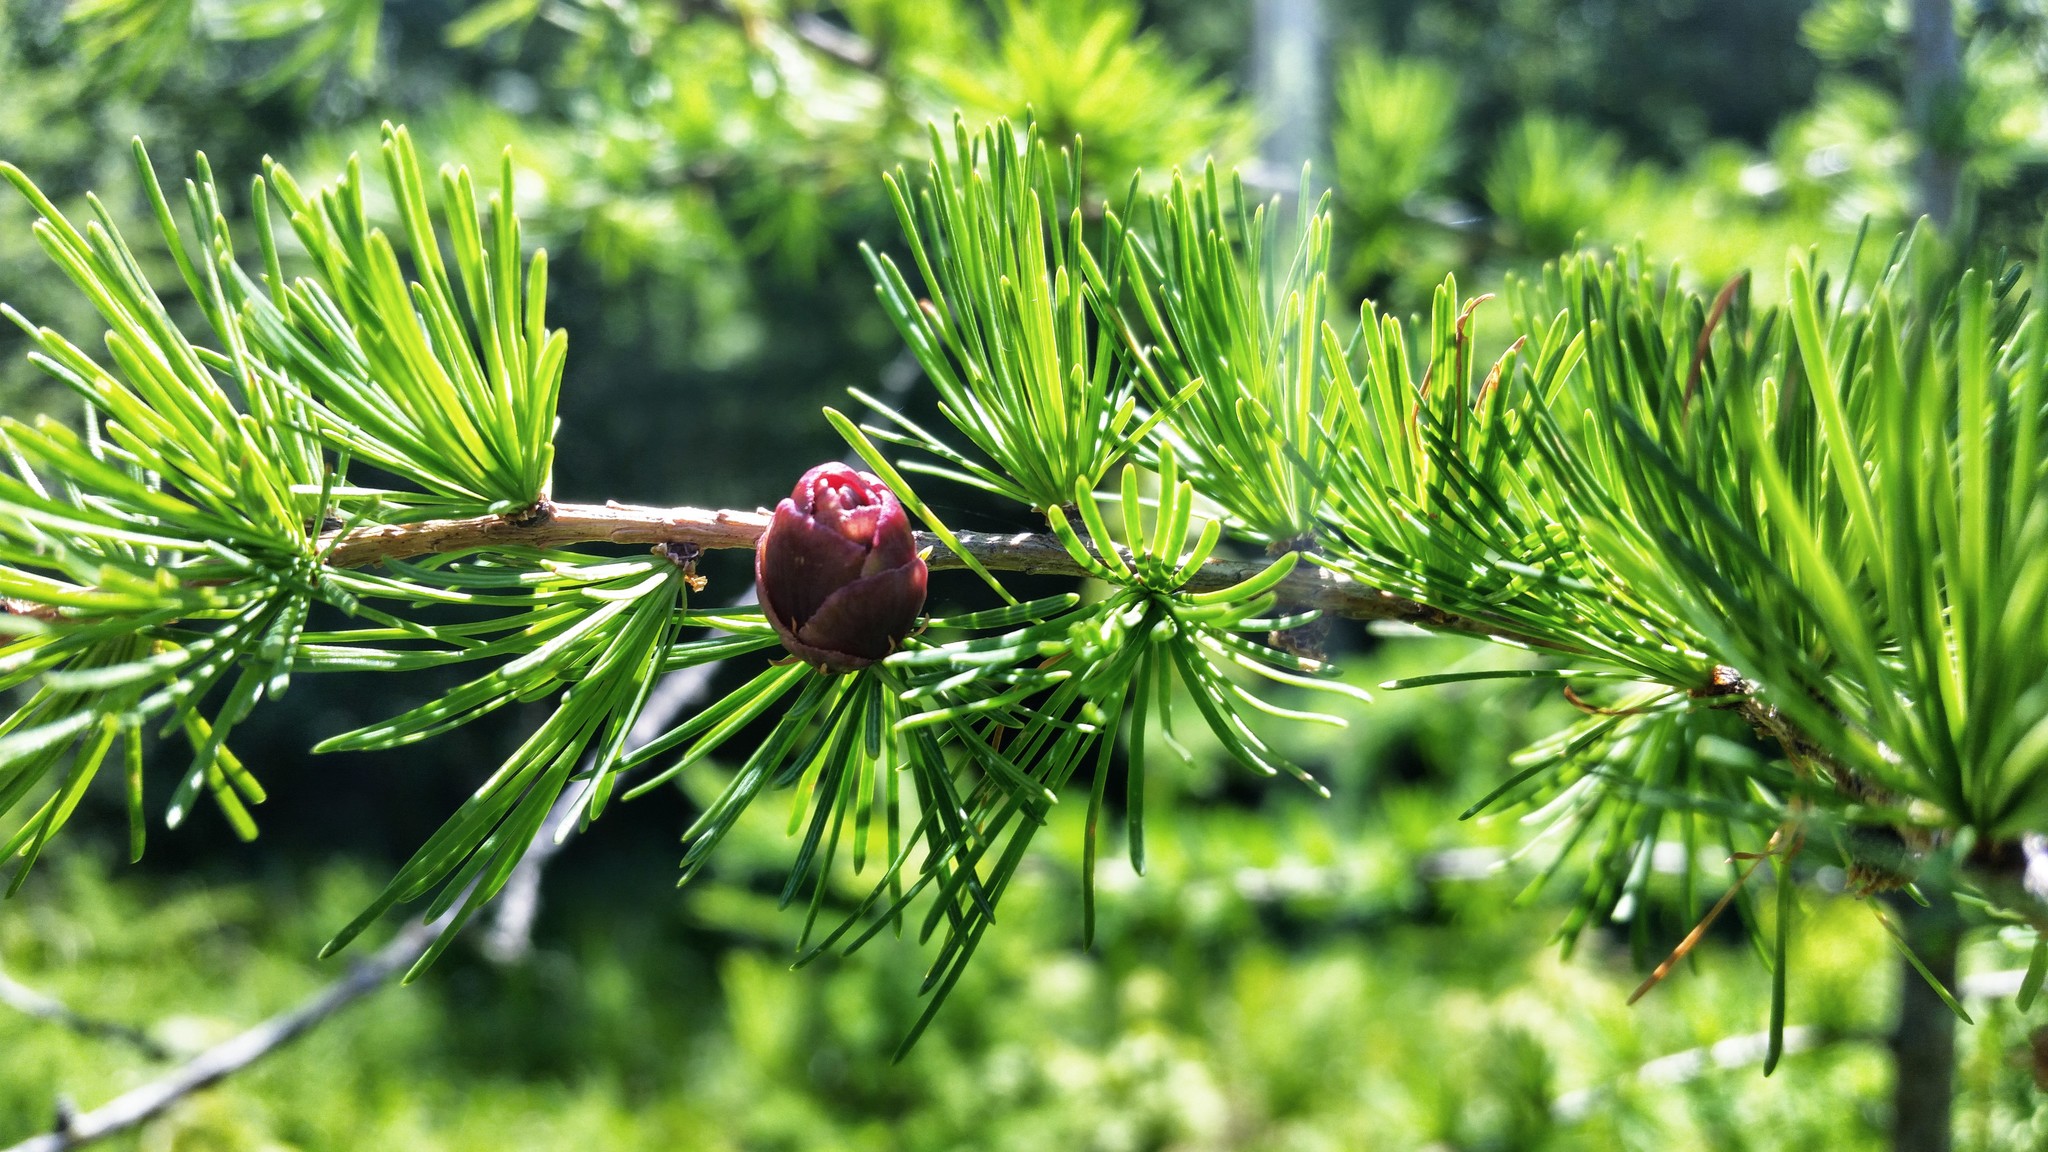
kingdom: Plantae
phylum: Tracheophyta
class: Pinopsida
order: Pinales
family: Pinaceae
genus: Larix
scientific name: Larix laricina
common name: American larch
